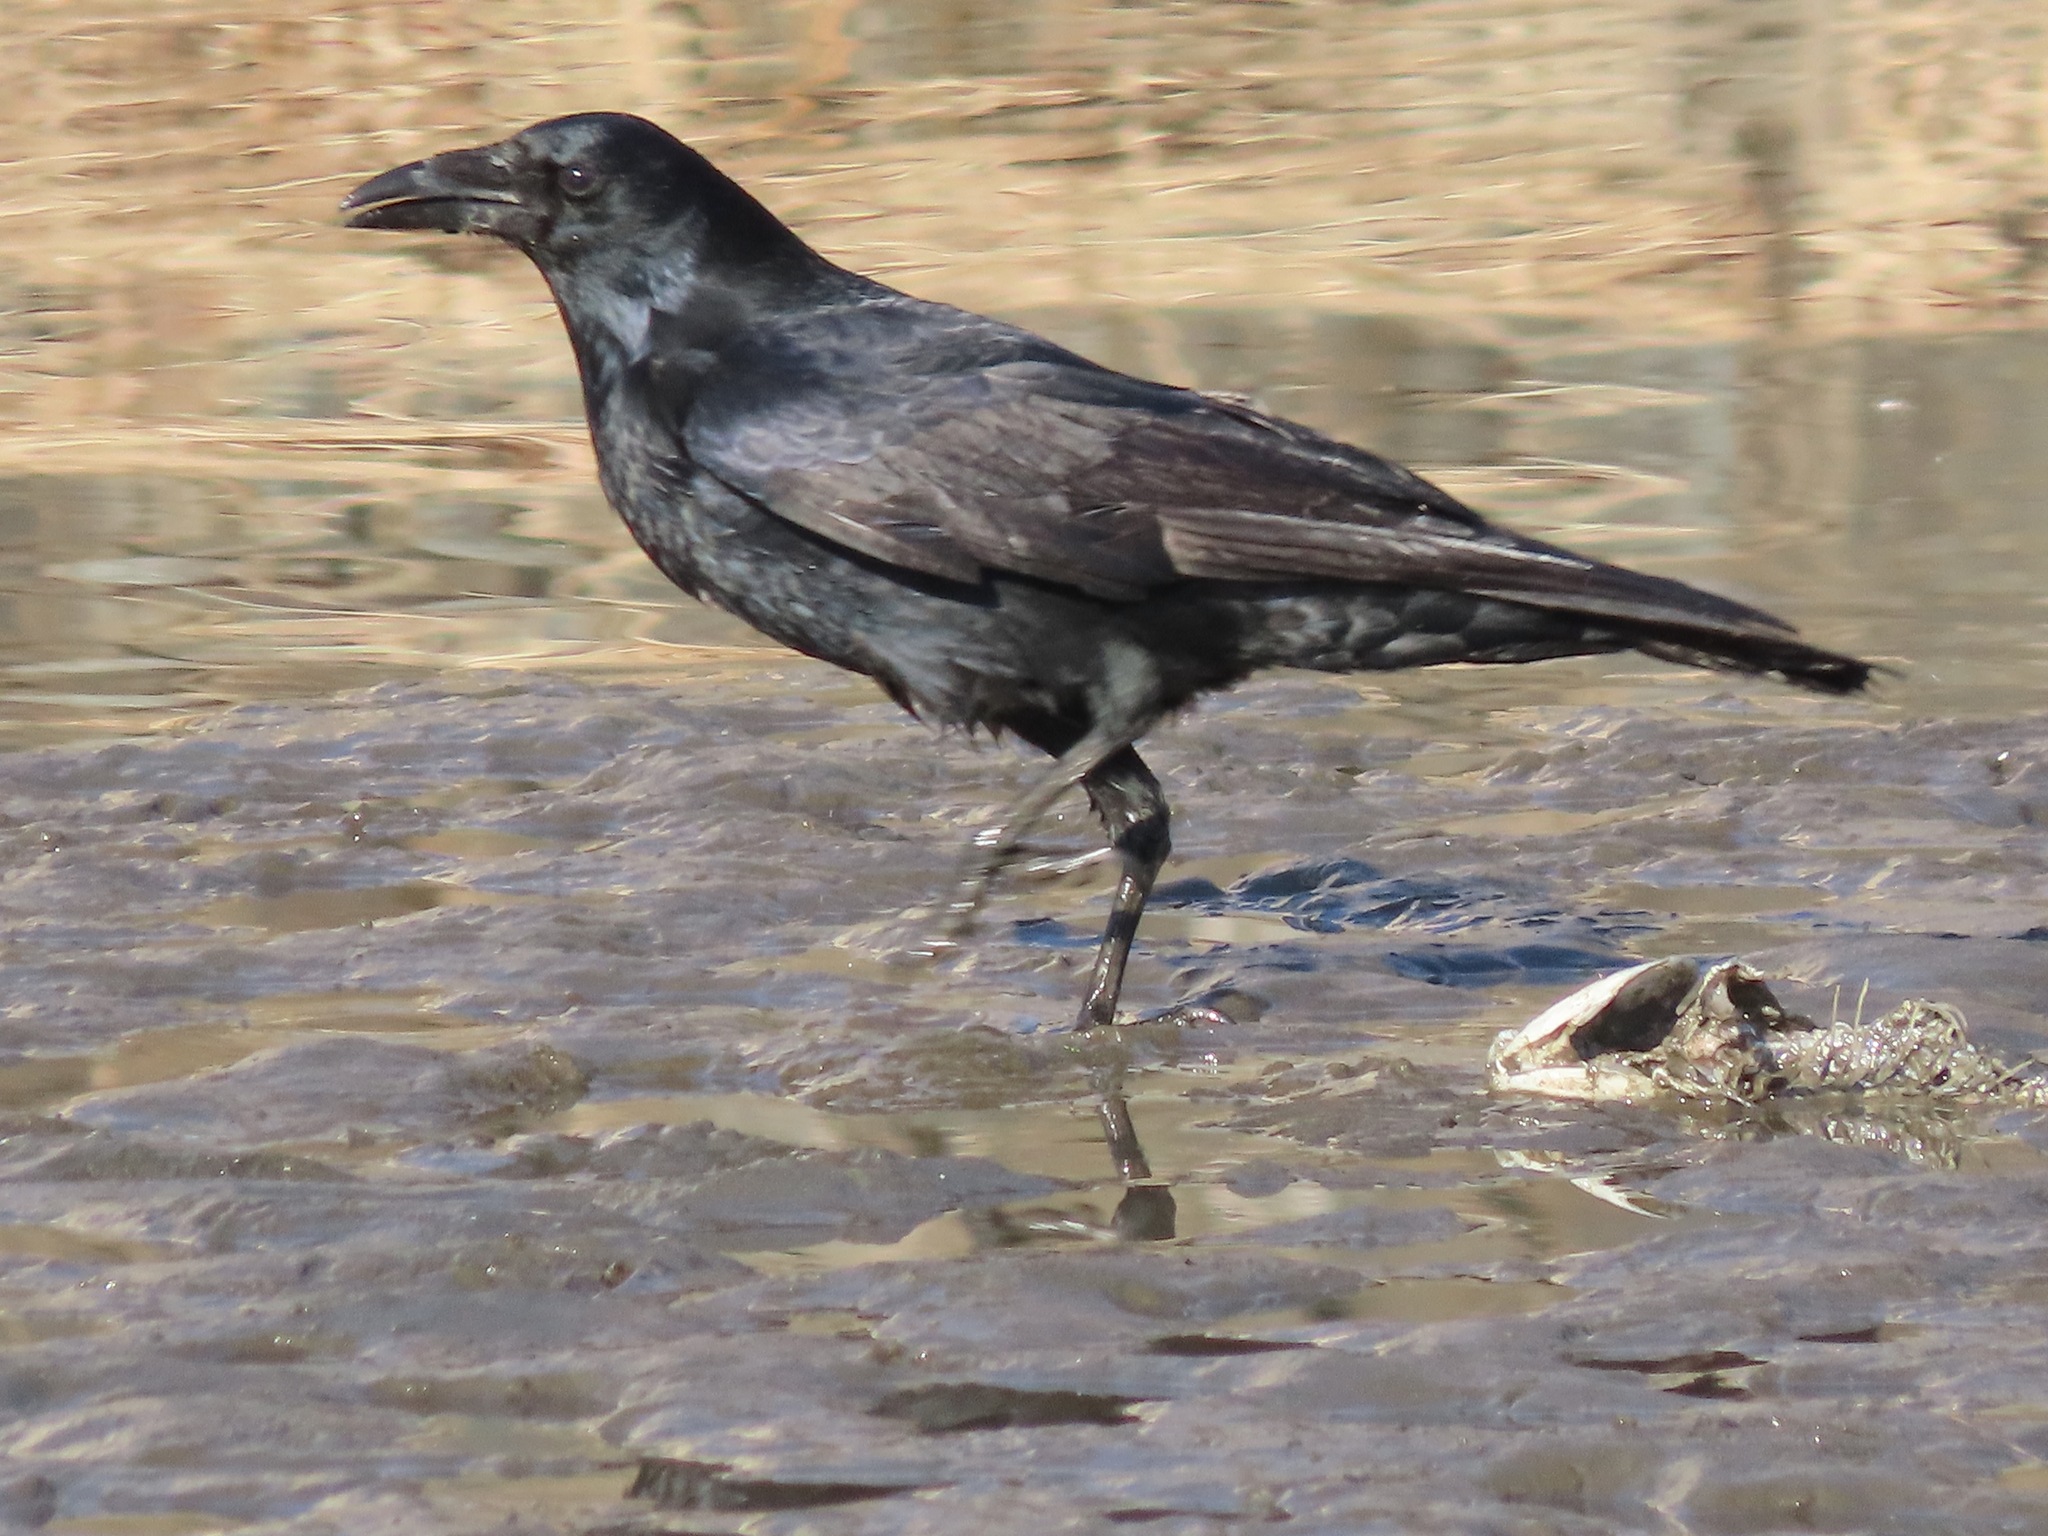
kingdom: Animalia
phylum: Chordata
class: Aves
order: Passeriformes
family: Corvidae
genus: Corvus
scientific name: Corvus corone
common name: Carrion crow
